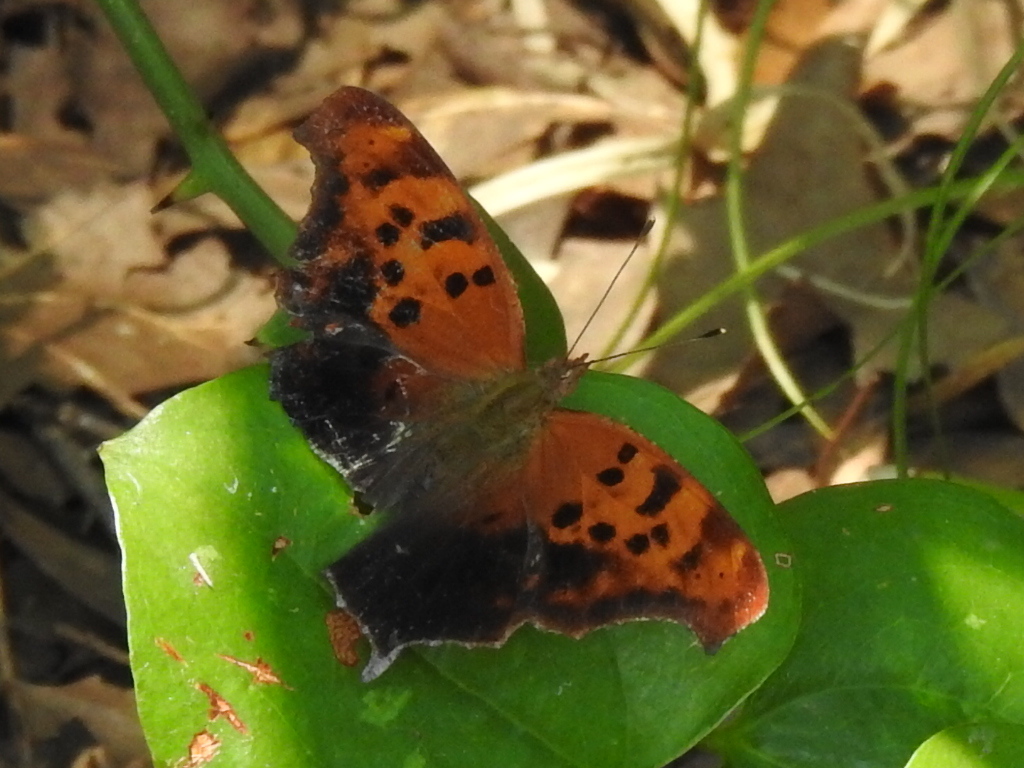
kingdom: Animalia
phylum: Arthropoda
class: Insecta
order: Lepidoptera
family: Nymphalidae
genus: Polygonia
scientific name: Polygonia interrogationis
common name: Question mark
